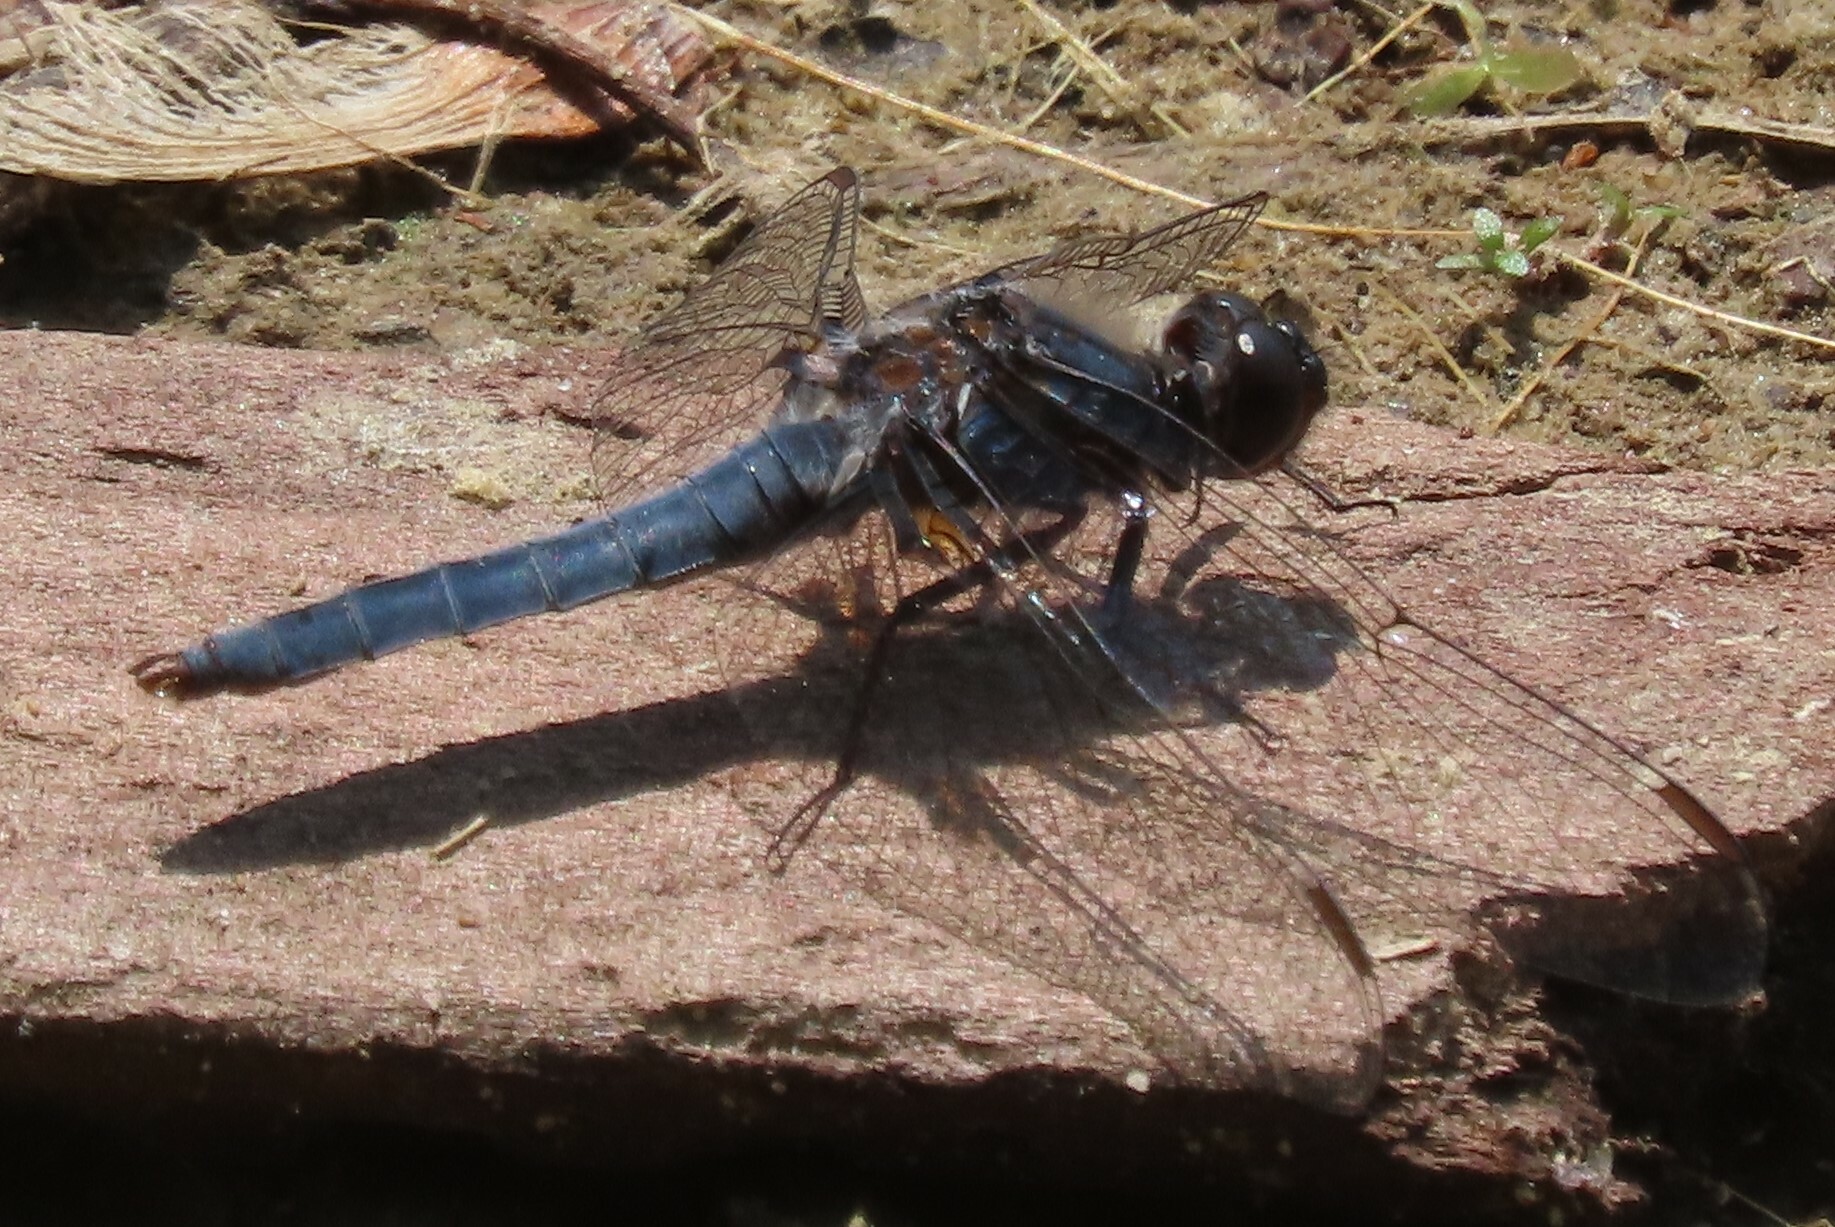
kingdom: Animalia
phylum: Arthropoda
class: Insecta
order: Odonata
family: Libellulidae
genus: Ladona
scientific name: Ladona deplanata
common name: Blue corporal
